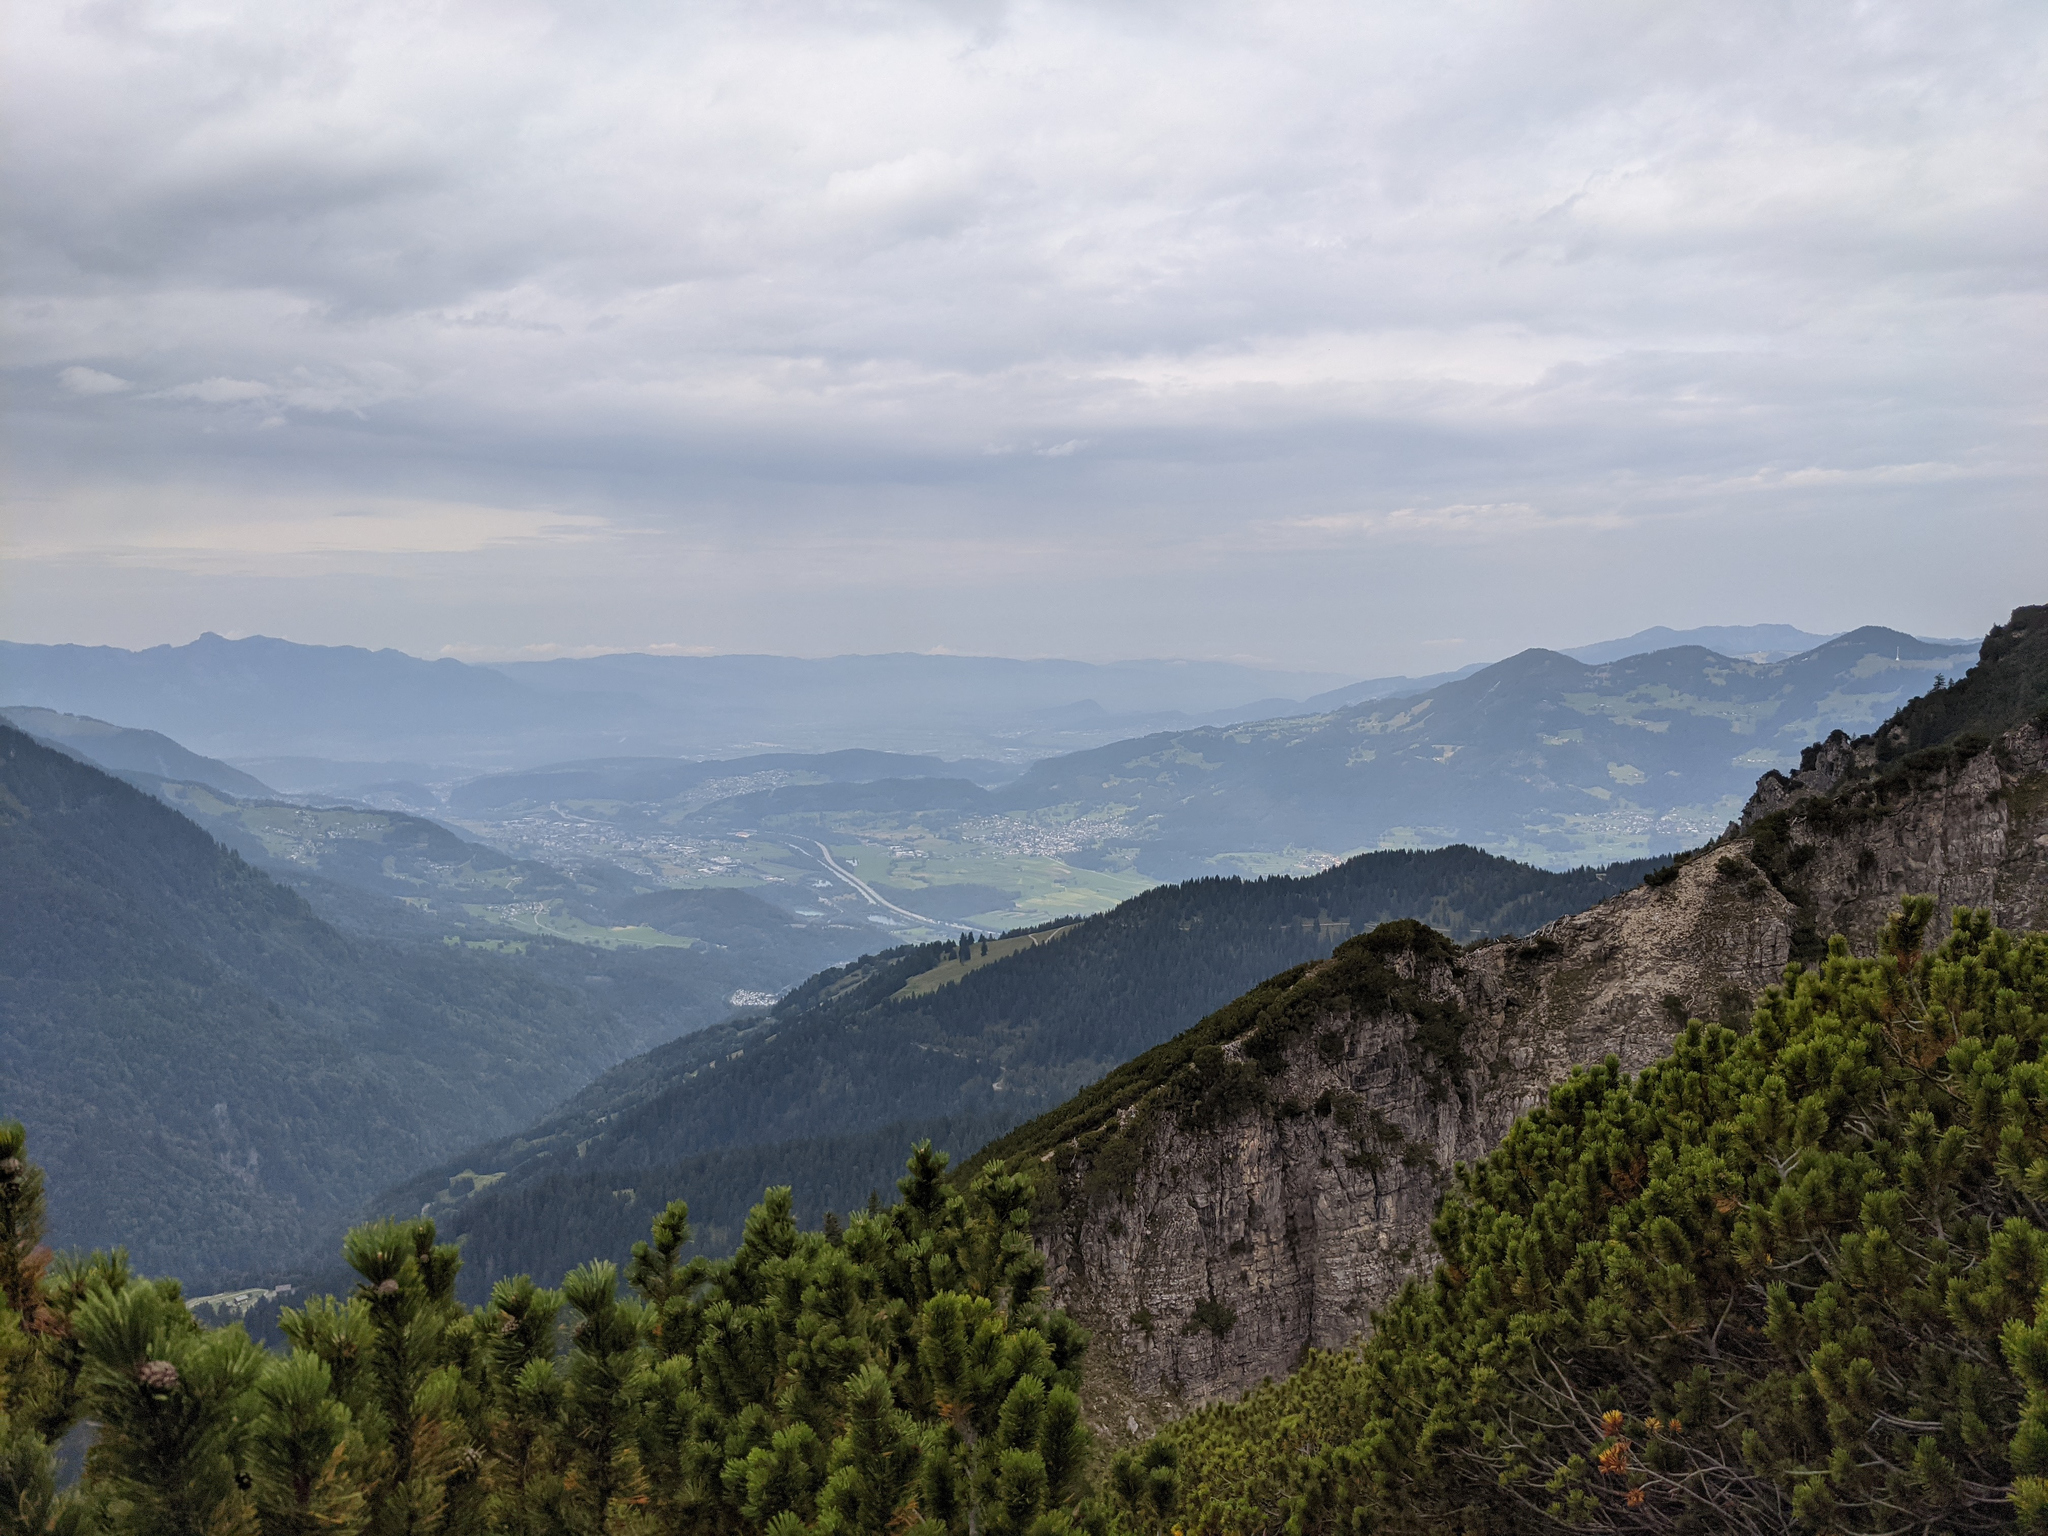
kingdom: Plantae
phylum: Tracheophyta
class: Pinopsida
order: Pinales
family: Pinaceae
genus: Pinus
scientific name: Pinus mugo
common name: Mugo pine
